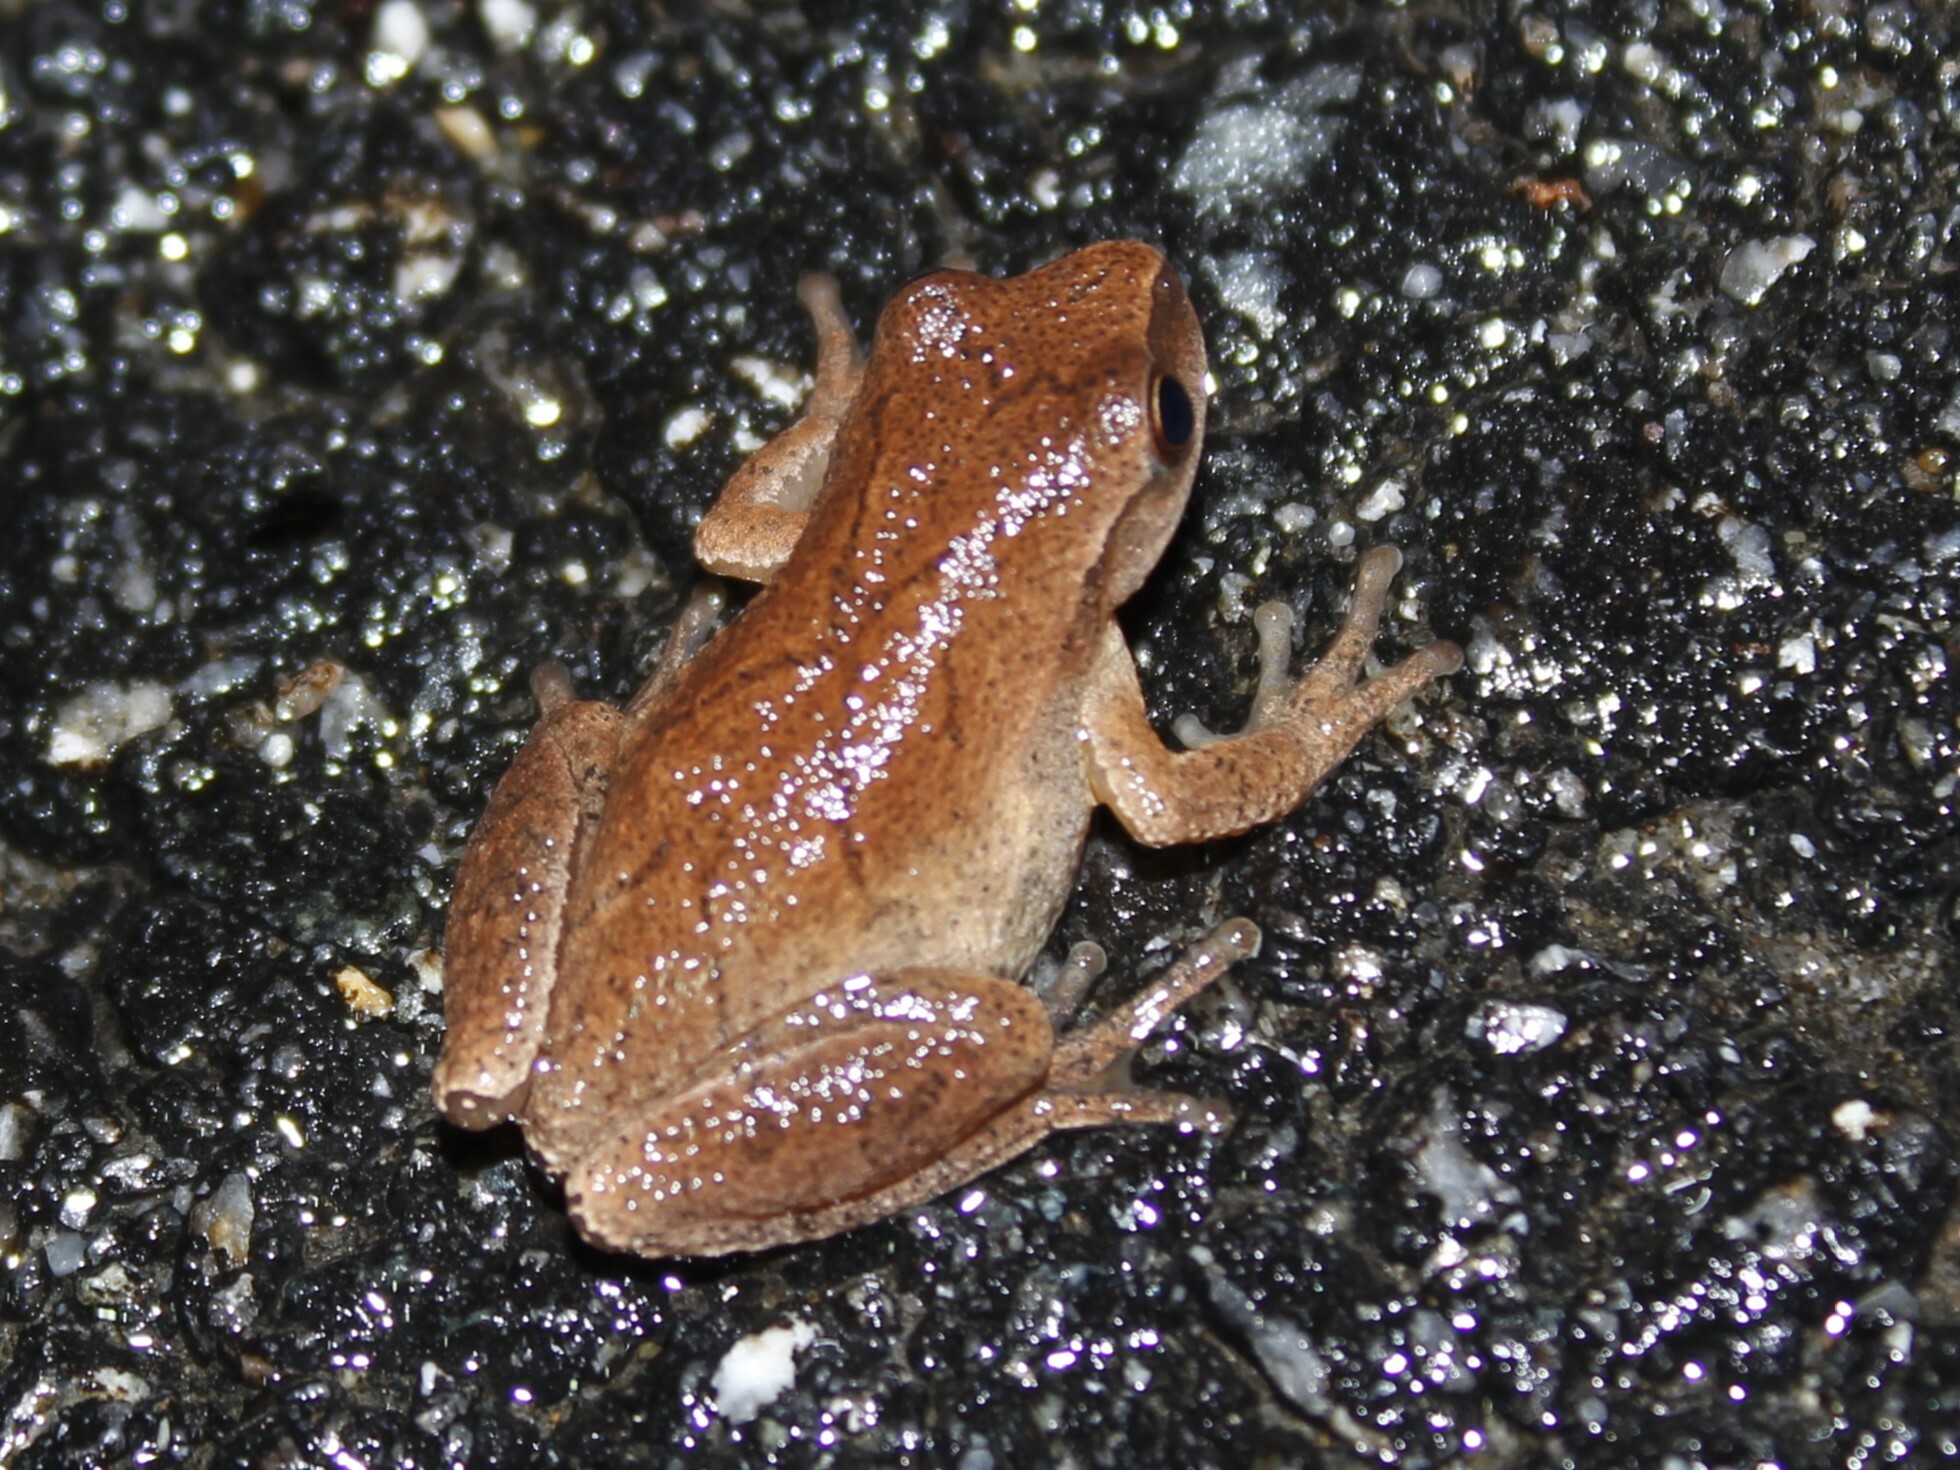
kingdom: Animalia
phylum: Chordata
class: Amphibia
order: Anura
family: Hylidae
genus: Pseudacris
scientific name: Pseudacris crucifer
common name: Spring peeper
